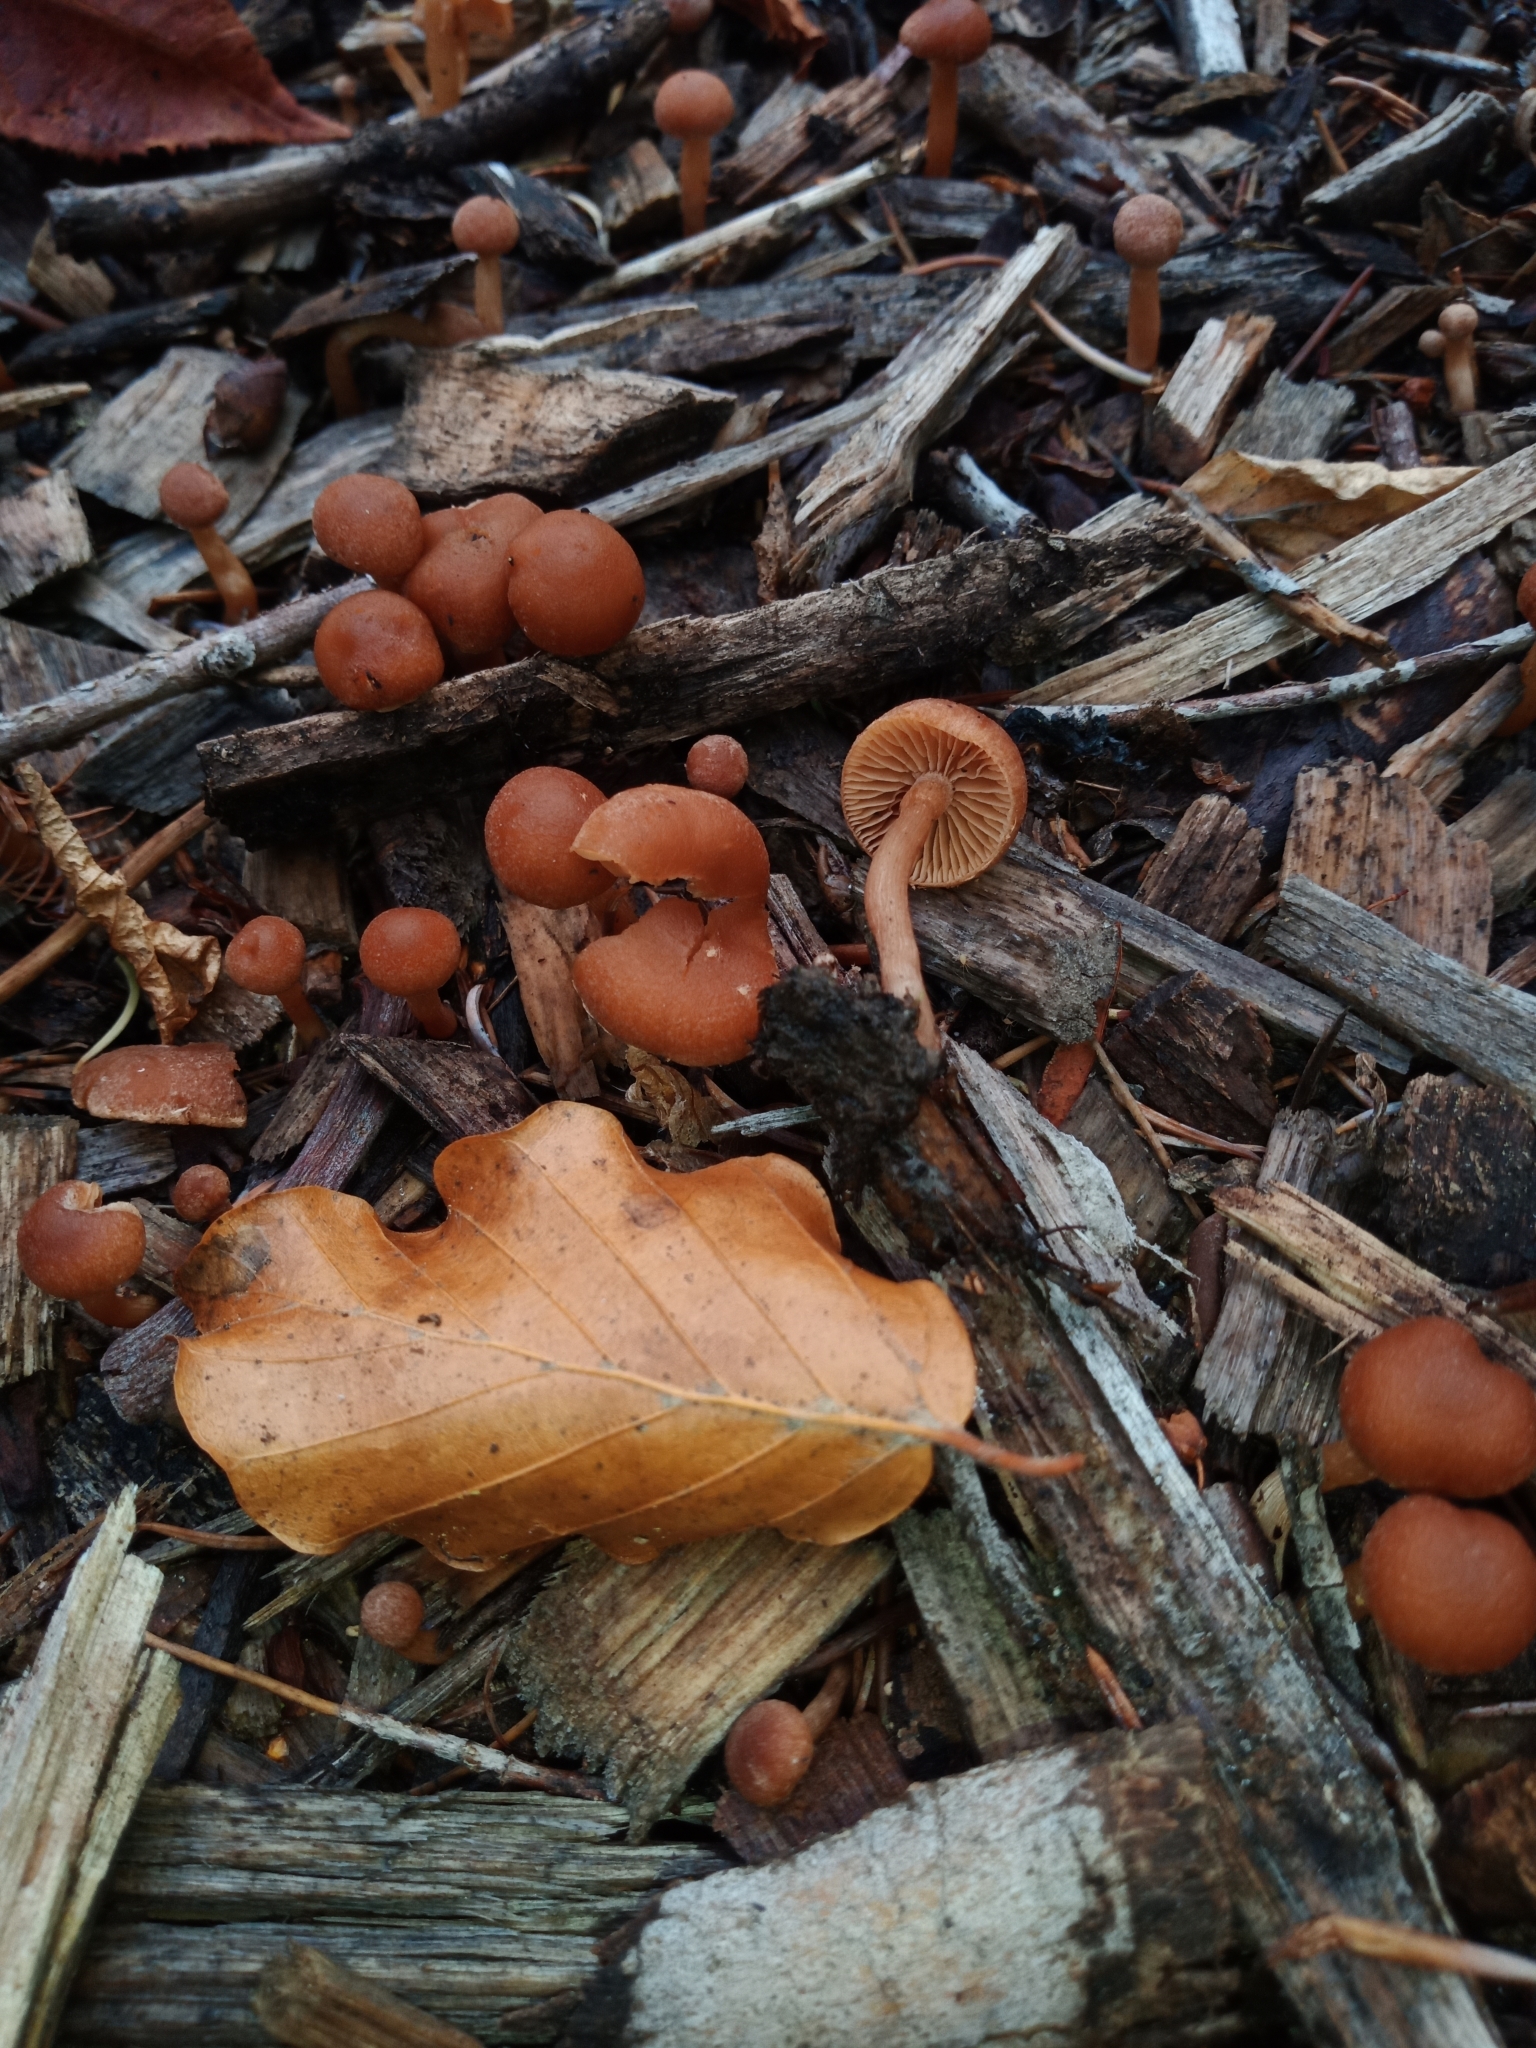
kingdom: Fungi
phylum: Basidiomycota
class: Agaricomycetes
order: Agaricales
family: Tubariaceae
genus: Tubaria
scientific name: Tubaria furfuracea
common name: Scurfy twiglet
